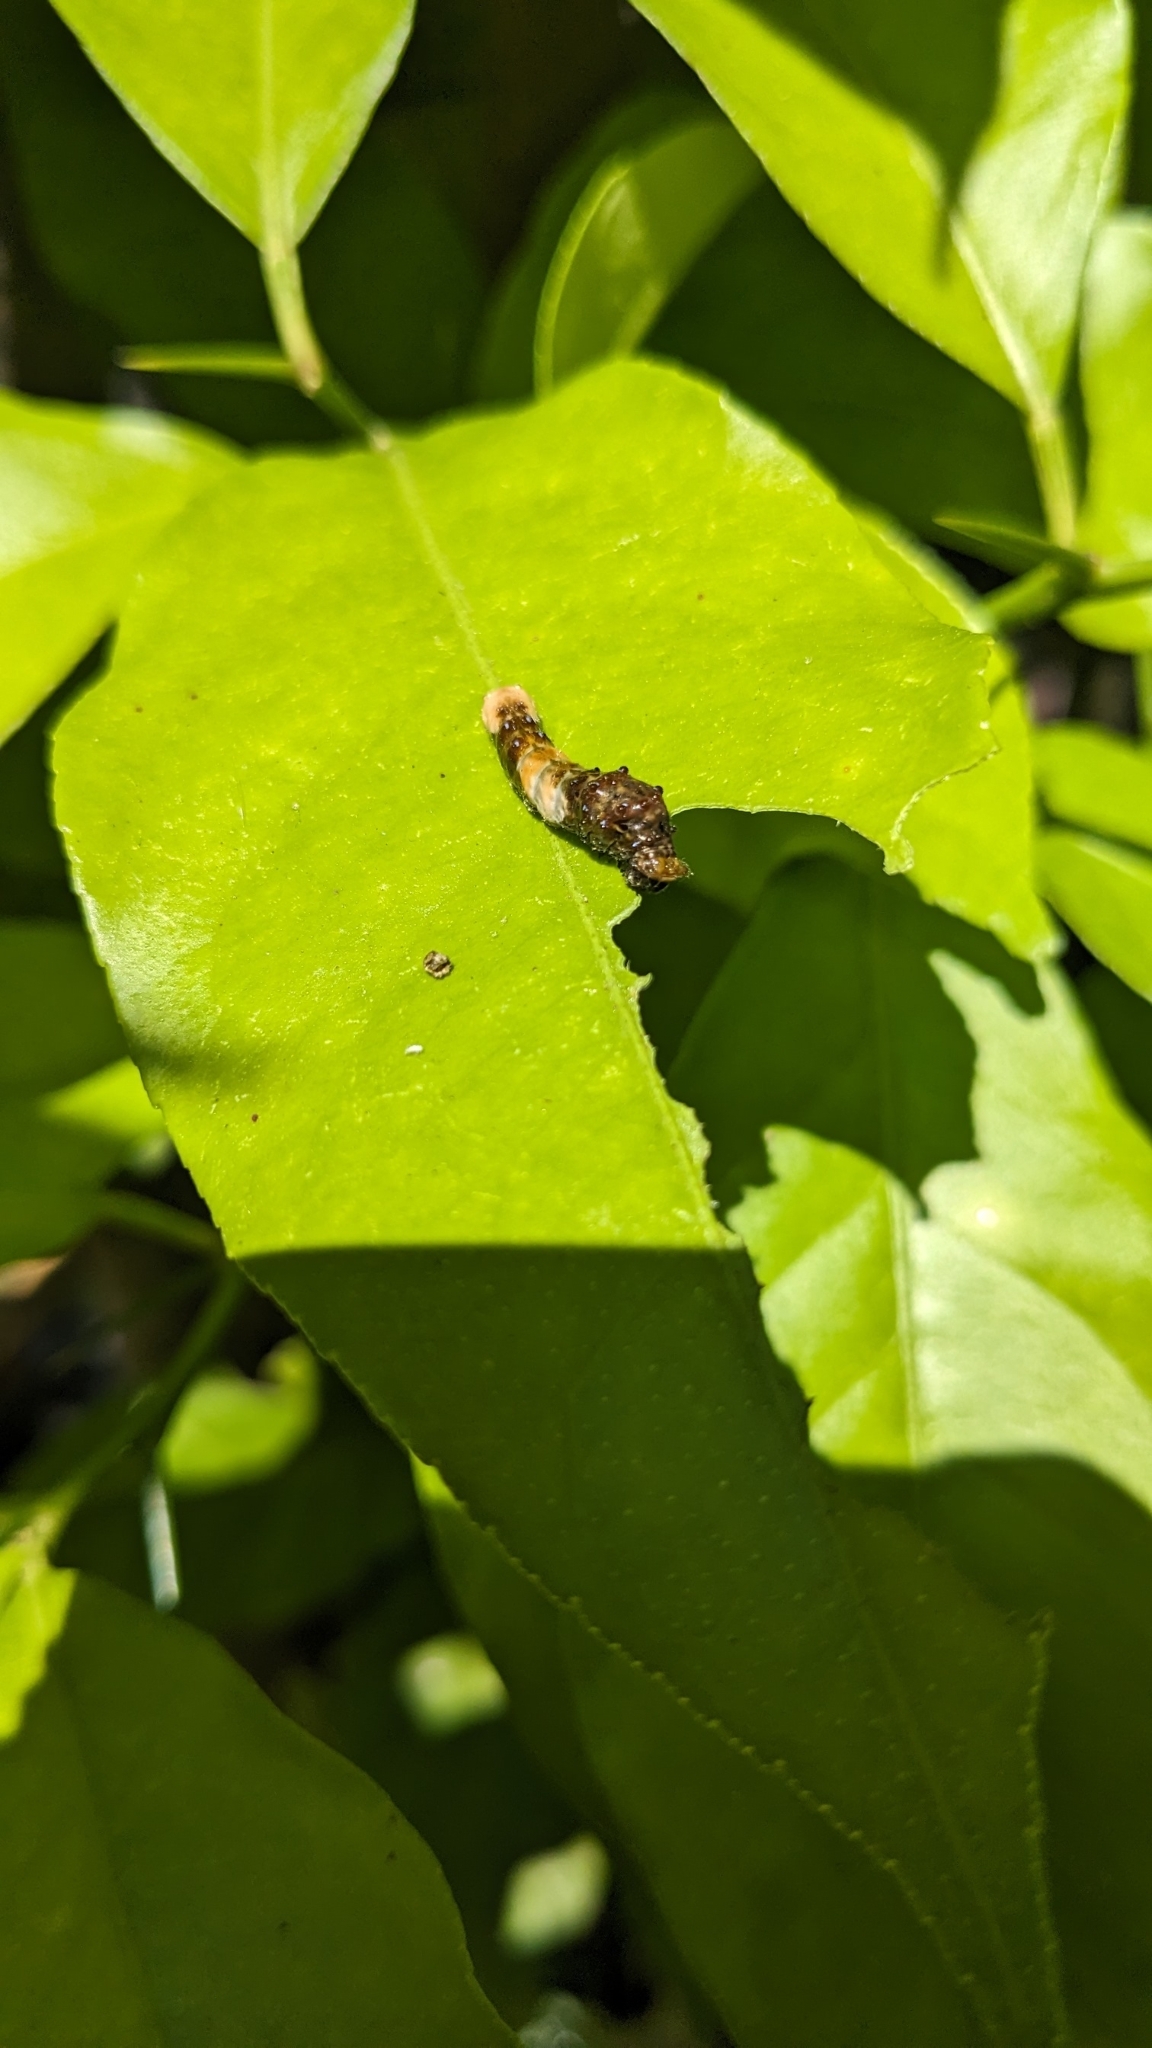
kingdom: Animalia
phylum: Arthropoda
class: Insecta
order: Lepidoptera
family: Papilionidae
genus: Papilio
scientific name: Papilio cresphontes
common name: Giant swallowtail
